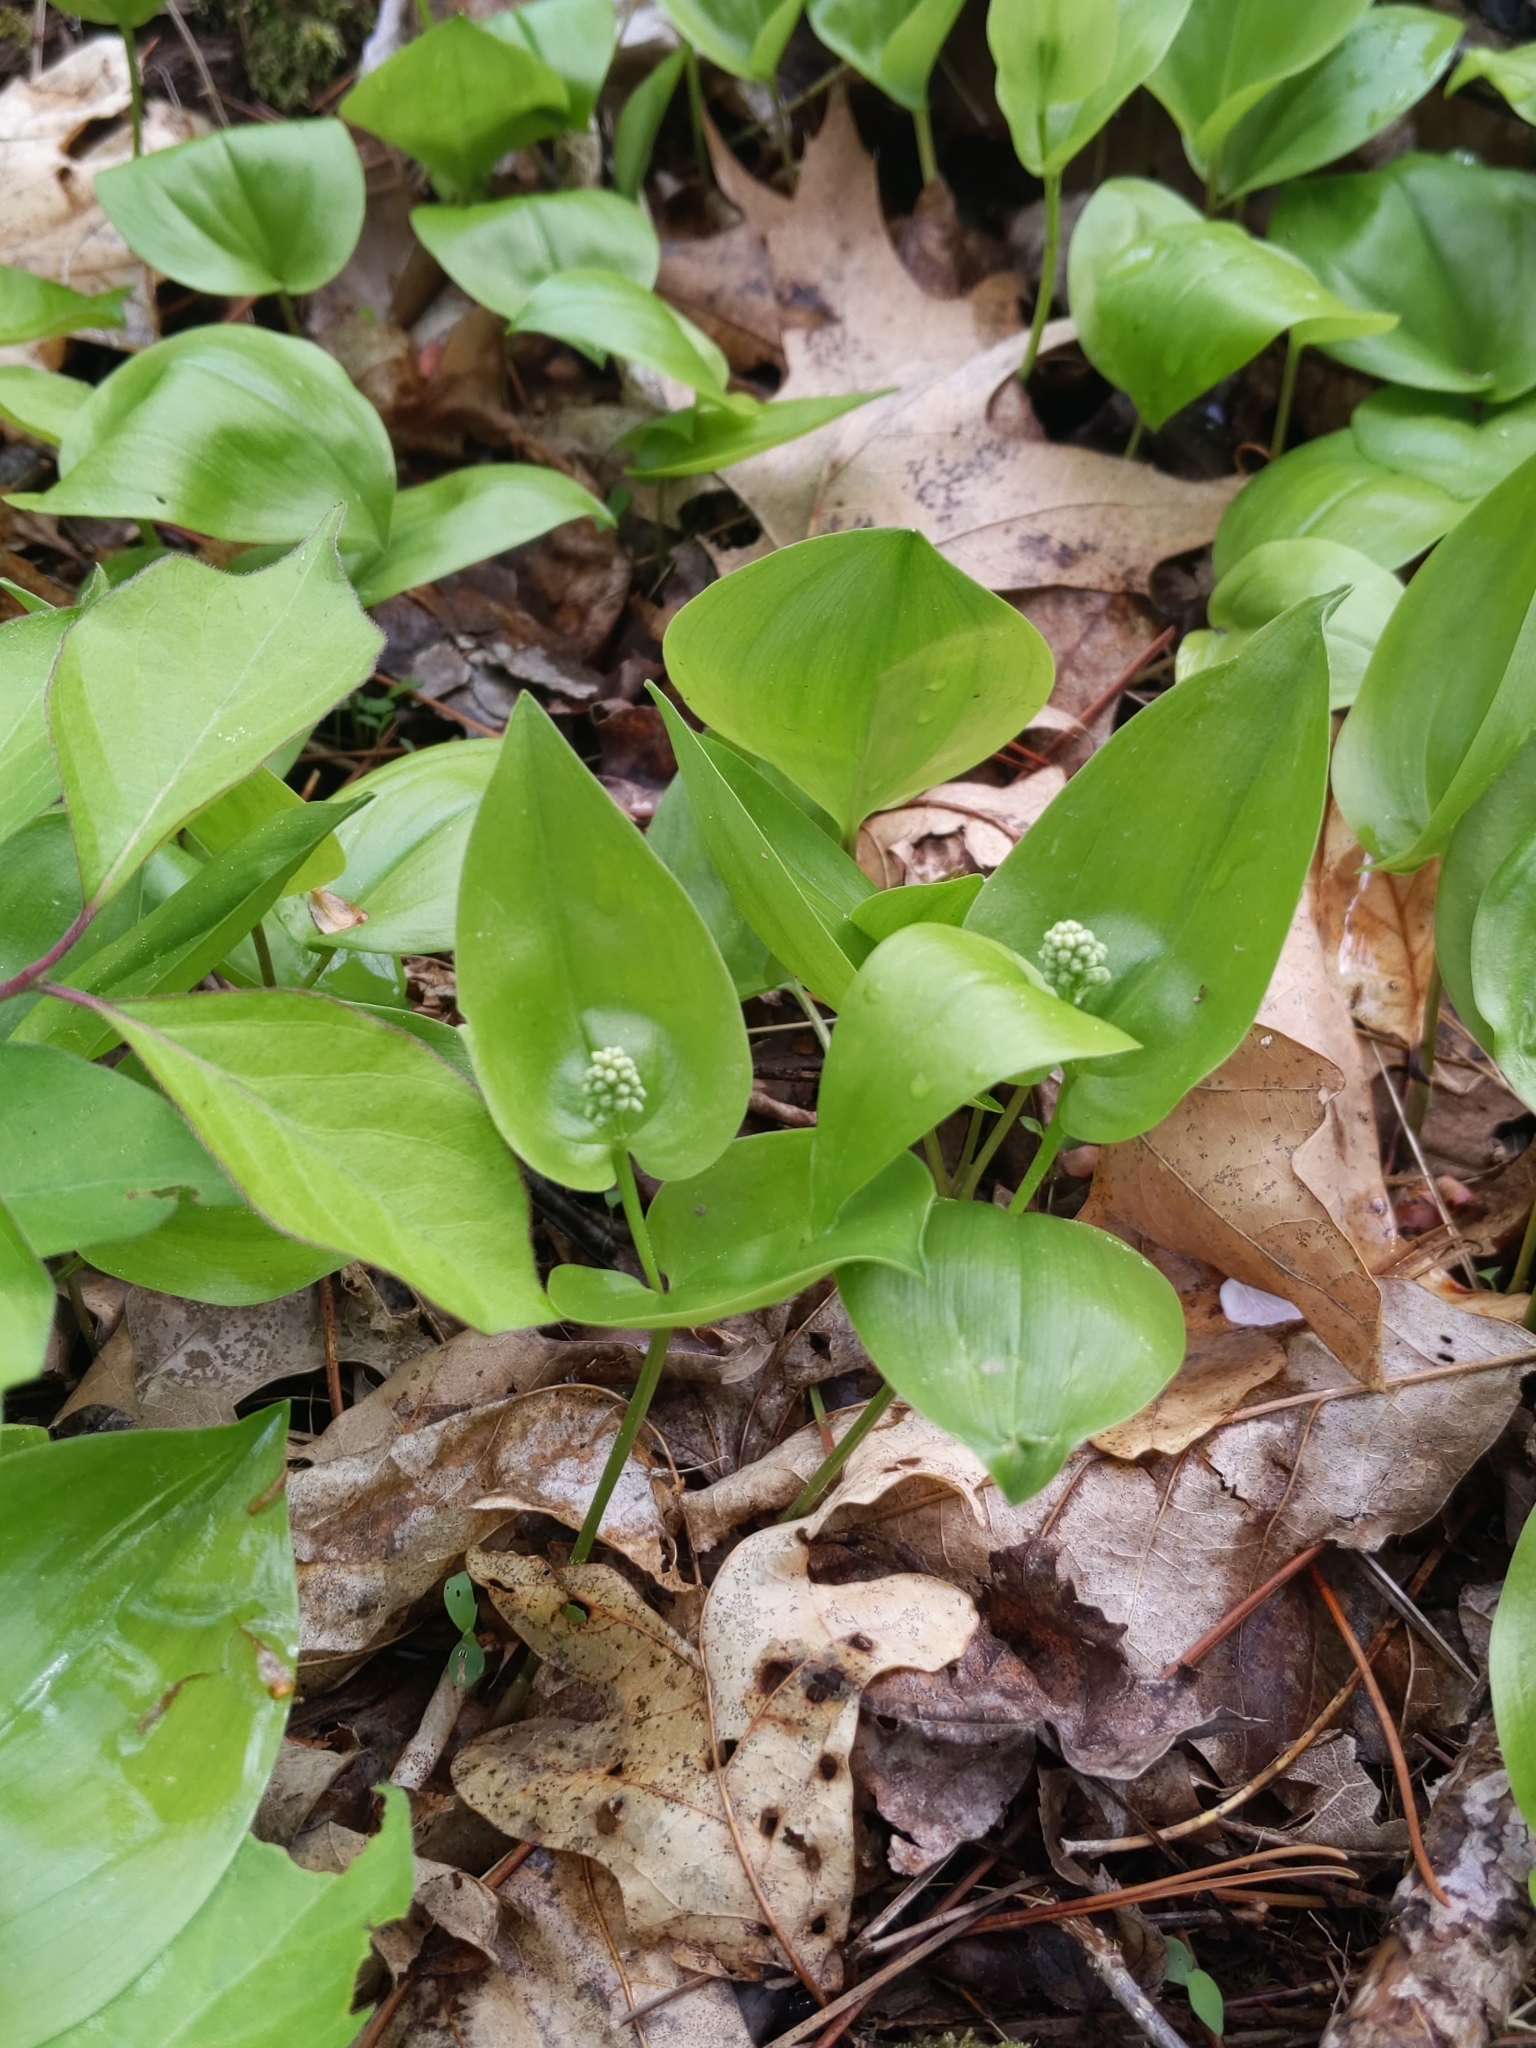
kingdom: Plantae
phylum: Tracheophyta
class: Liliopsida
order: Asparagales
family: Asparagaceae
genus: Maianthemum
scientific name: Maianthemum canadense
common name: False lily-of-the-valley
